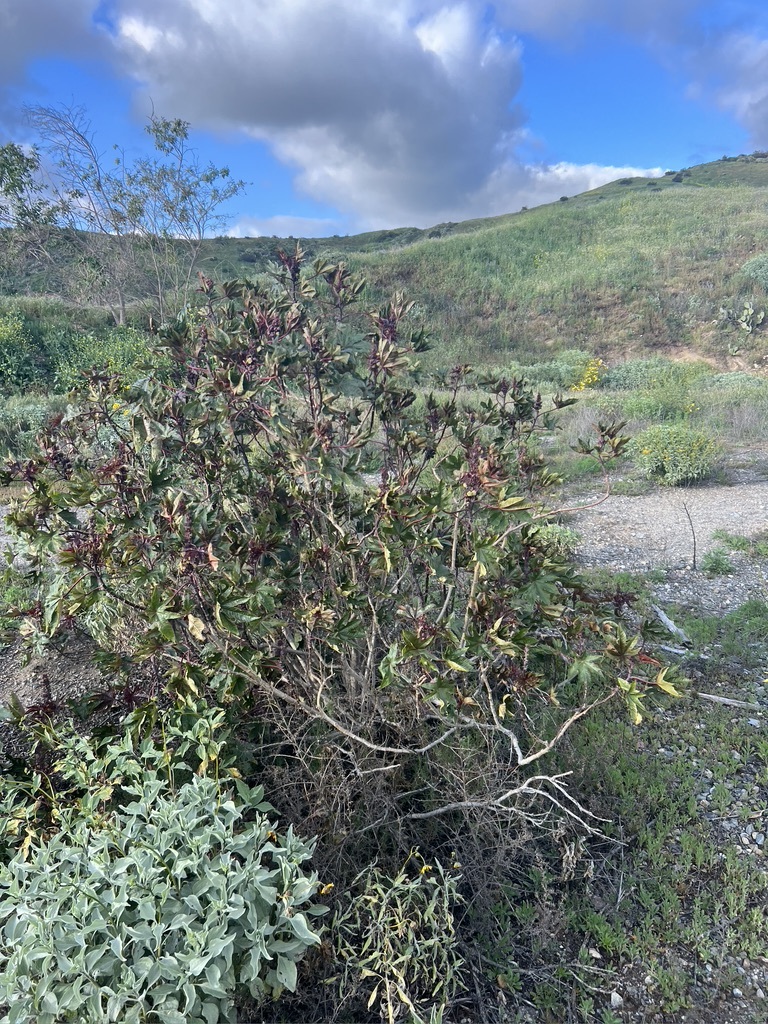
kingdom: Plantae
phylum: Tracheophyta
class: Magnoliopsida
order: Malpighiales
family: Euphorbiaceae
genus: Ricinus
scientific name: Ricinus communis
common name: Castor-oil-plant
